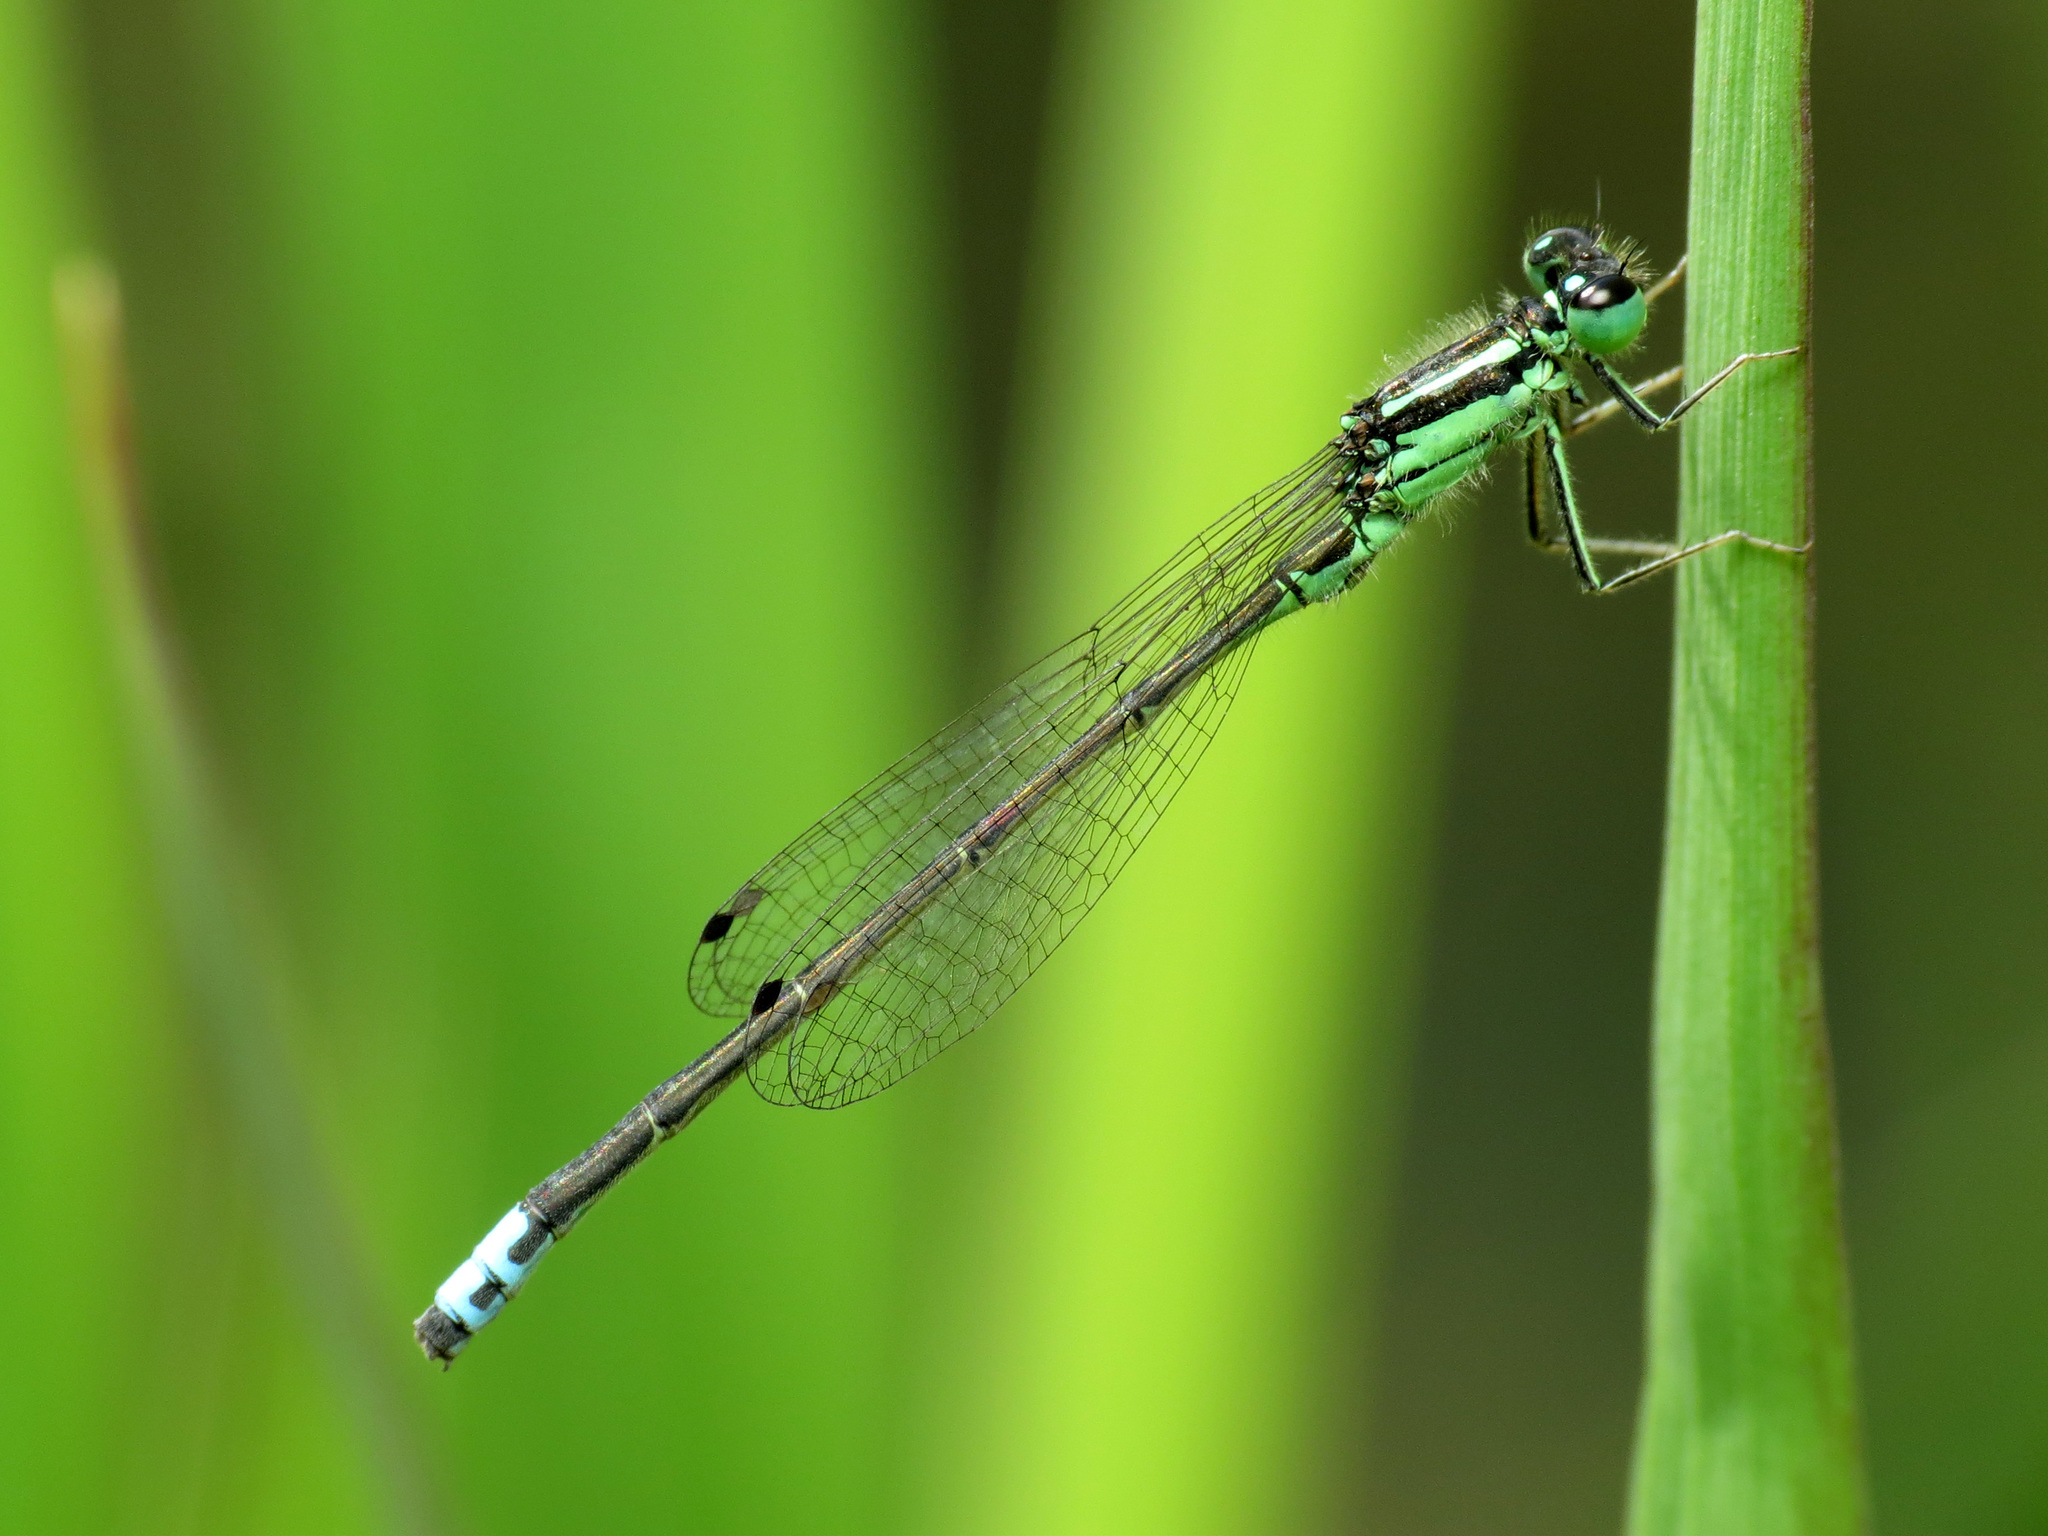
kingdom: Animalia
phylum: Arthropoda
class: Insecta
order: Odonata
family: Coenagrionidae
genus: Ischnura
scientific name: Ischnura verticalis
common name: Eastern forktail
